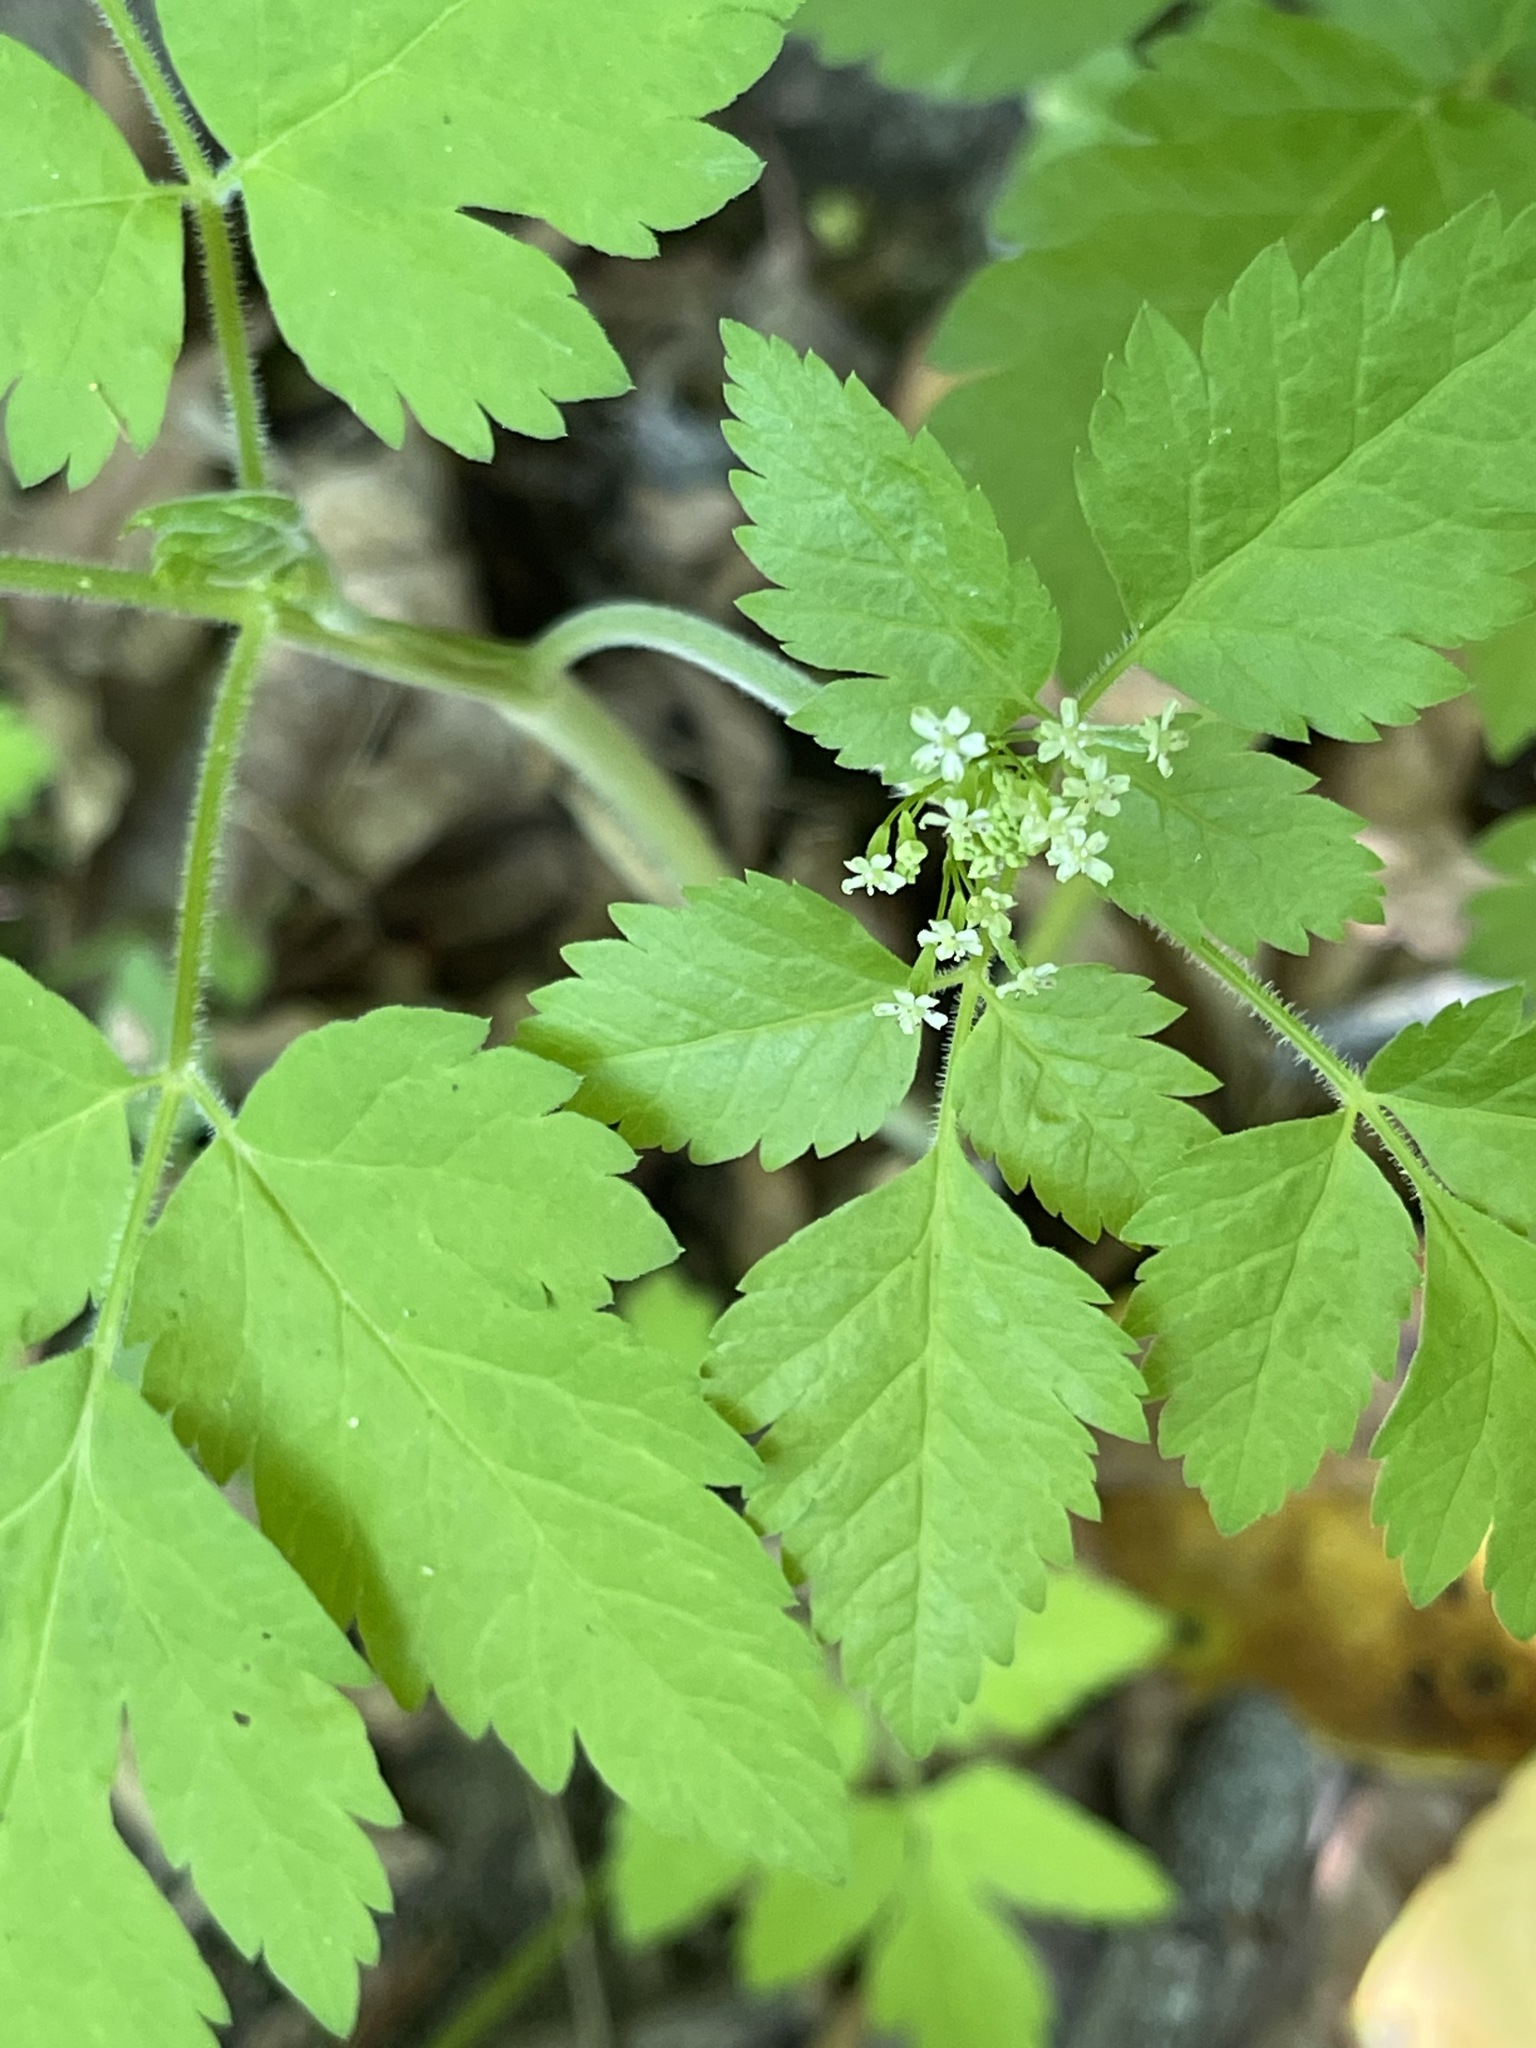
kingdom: Plantae
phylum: Tracheophyta
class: Magnoliopsida
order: Apiales
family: Apiaceae
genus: Osmorhiza
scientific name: Osmorhiza berteroi
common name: Mountain sweet cicely
